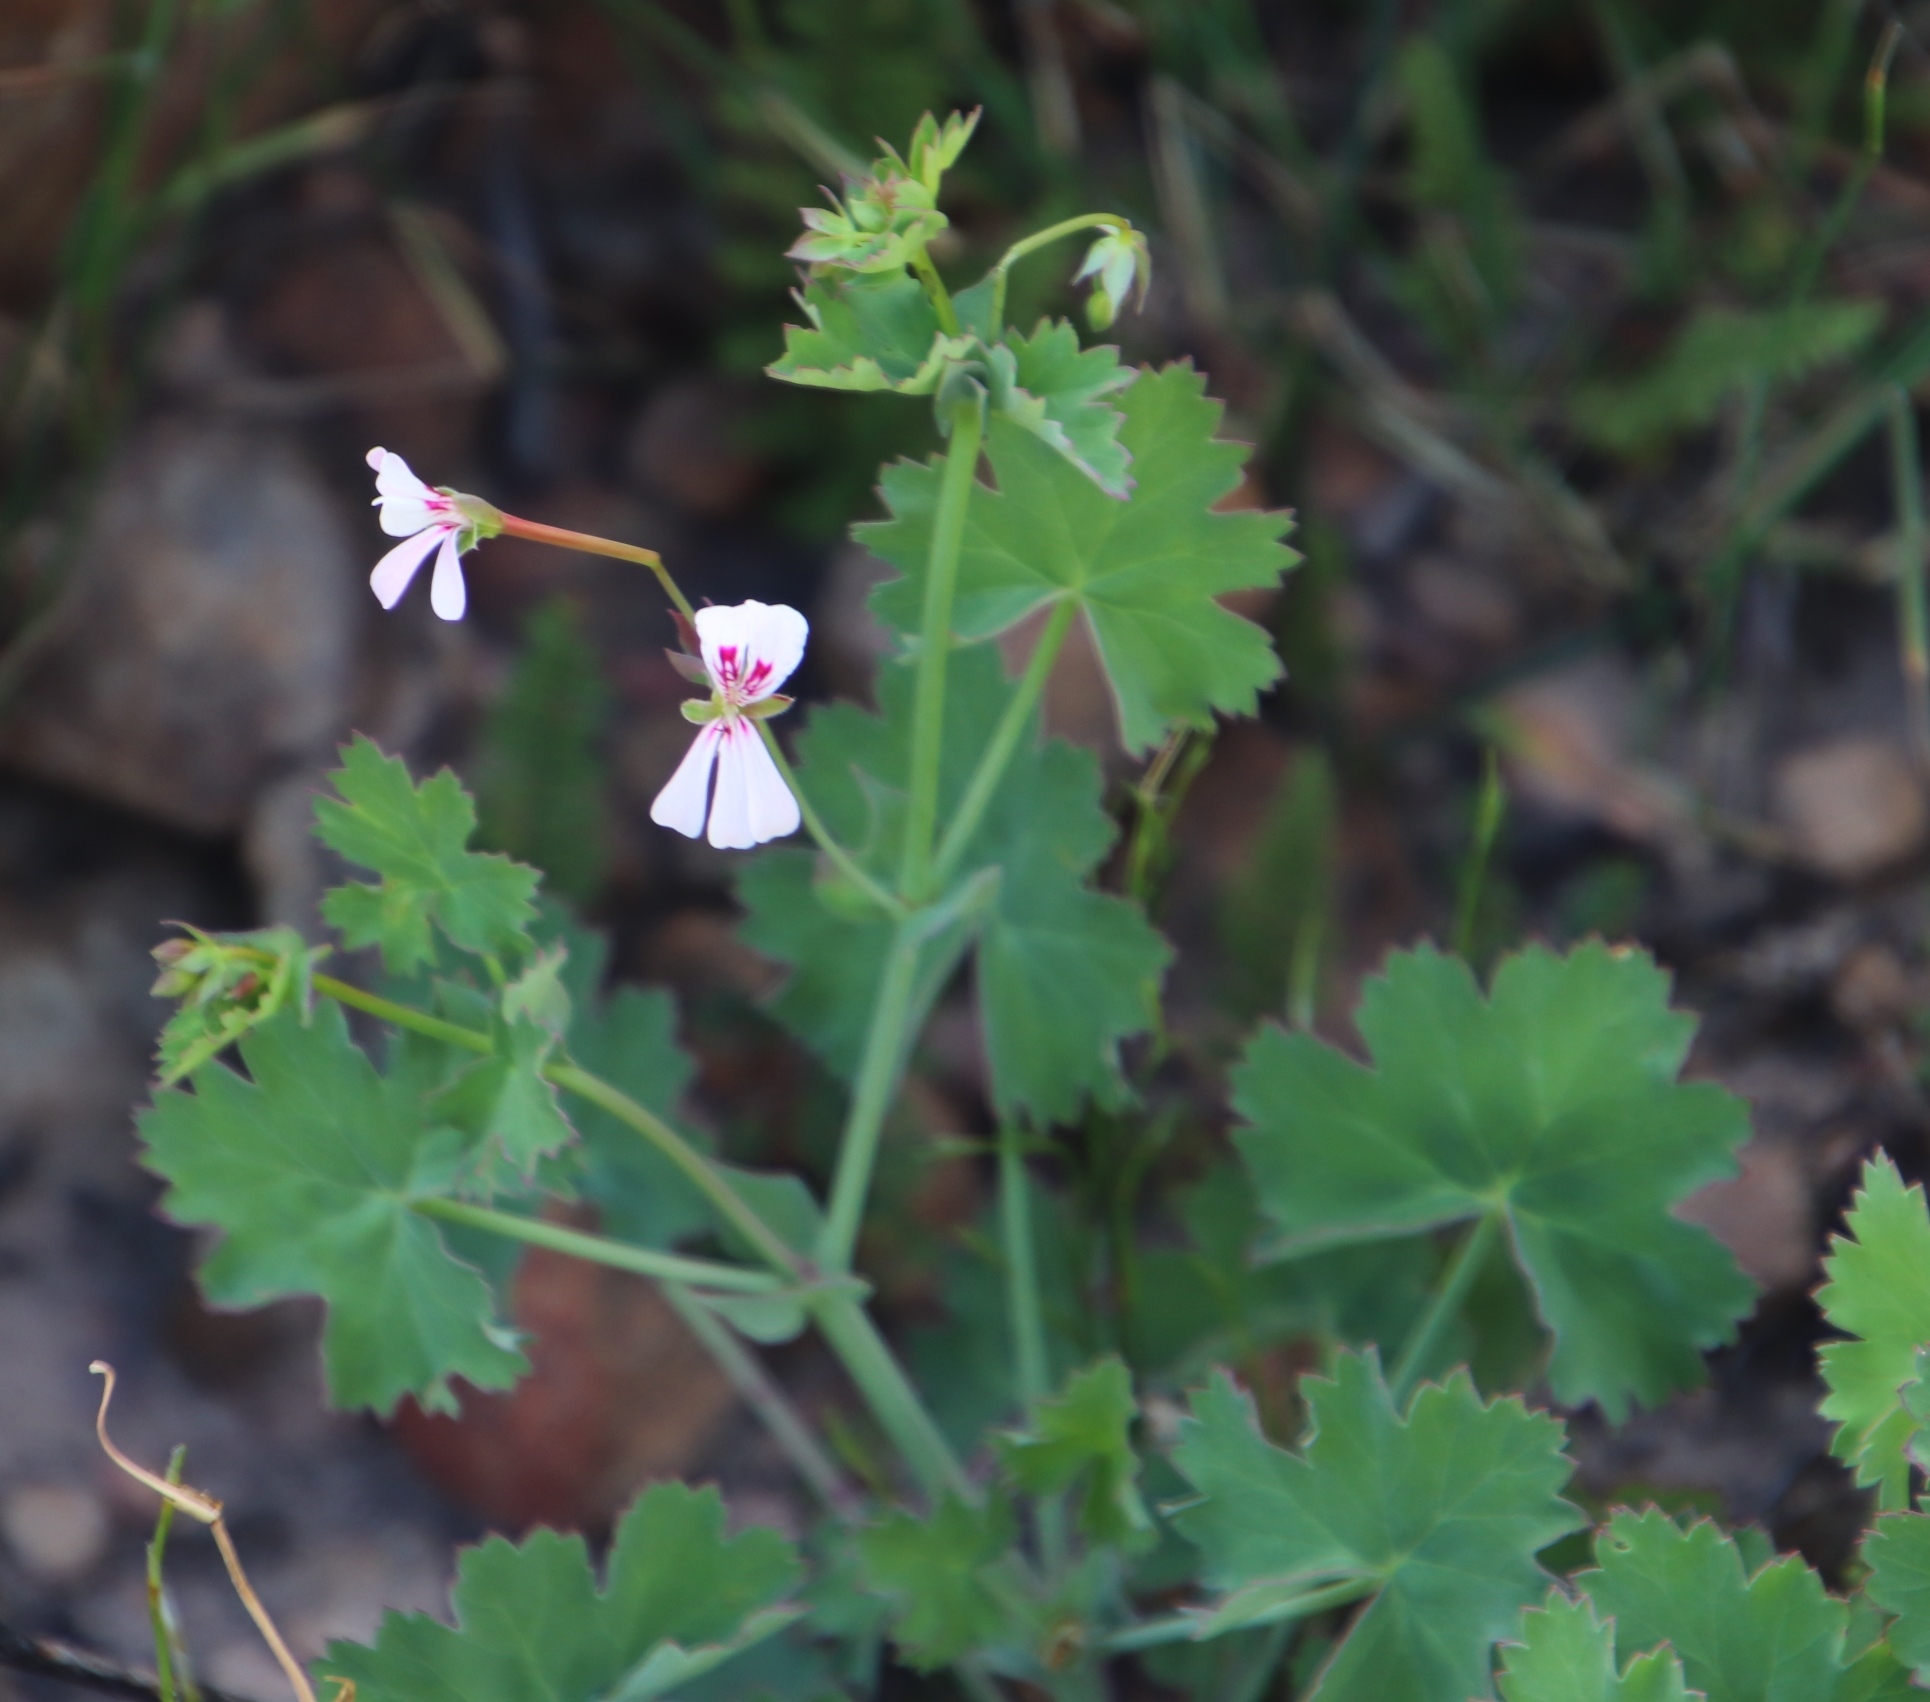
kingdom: Plantae
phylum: Tracheophyta
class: Magnoliopsida
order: Geraniales
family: Geraniaceae
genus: Pelargonium
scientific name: Pelargonium patulum
